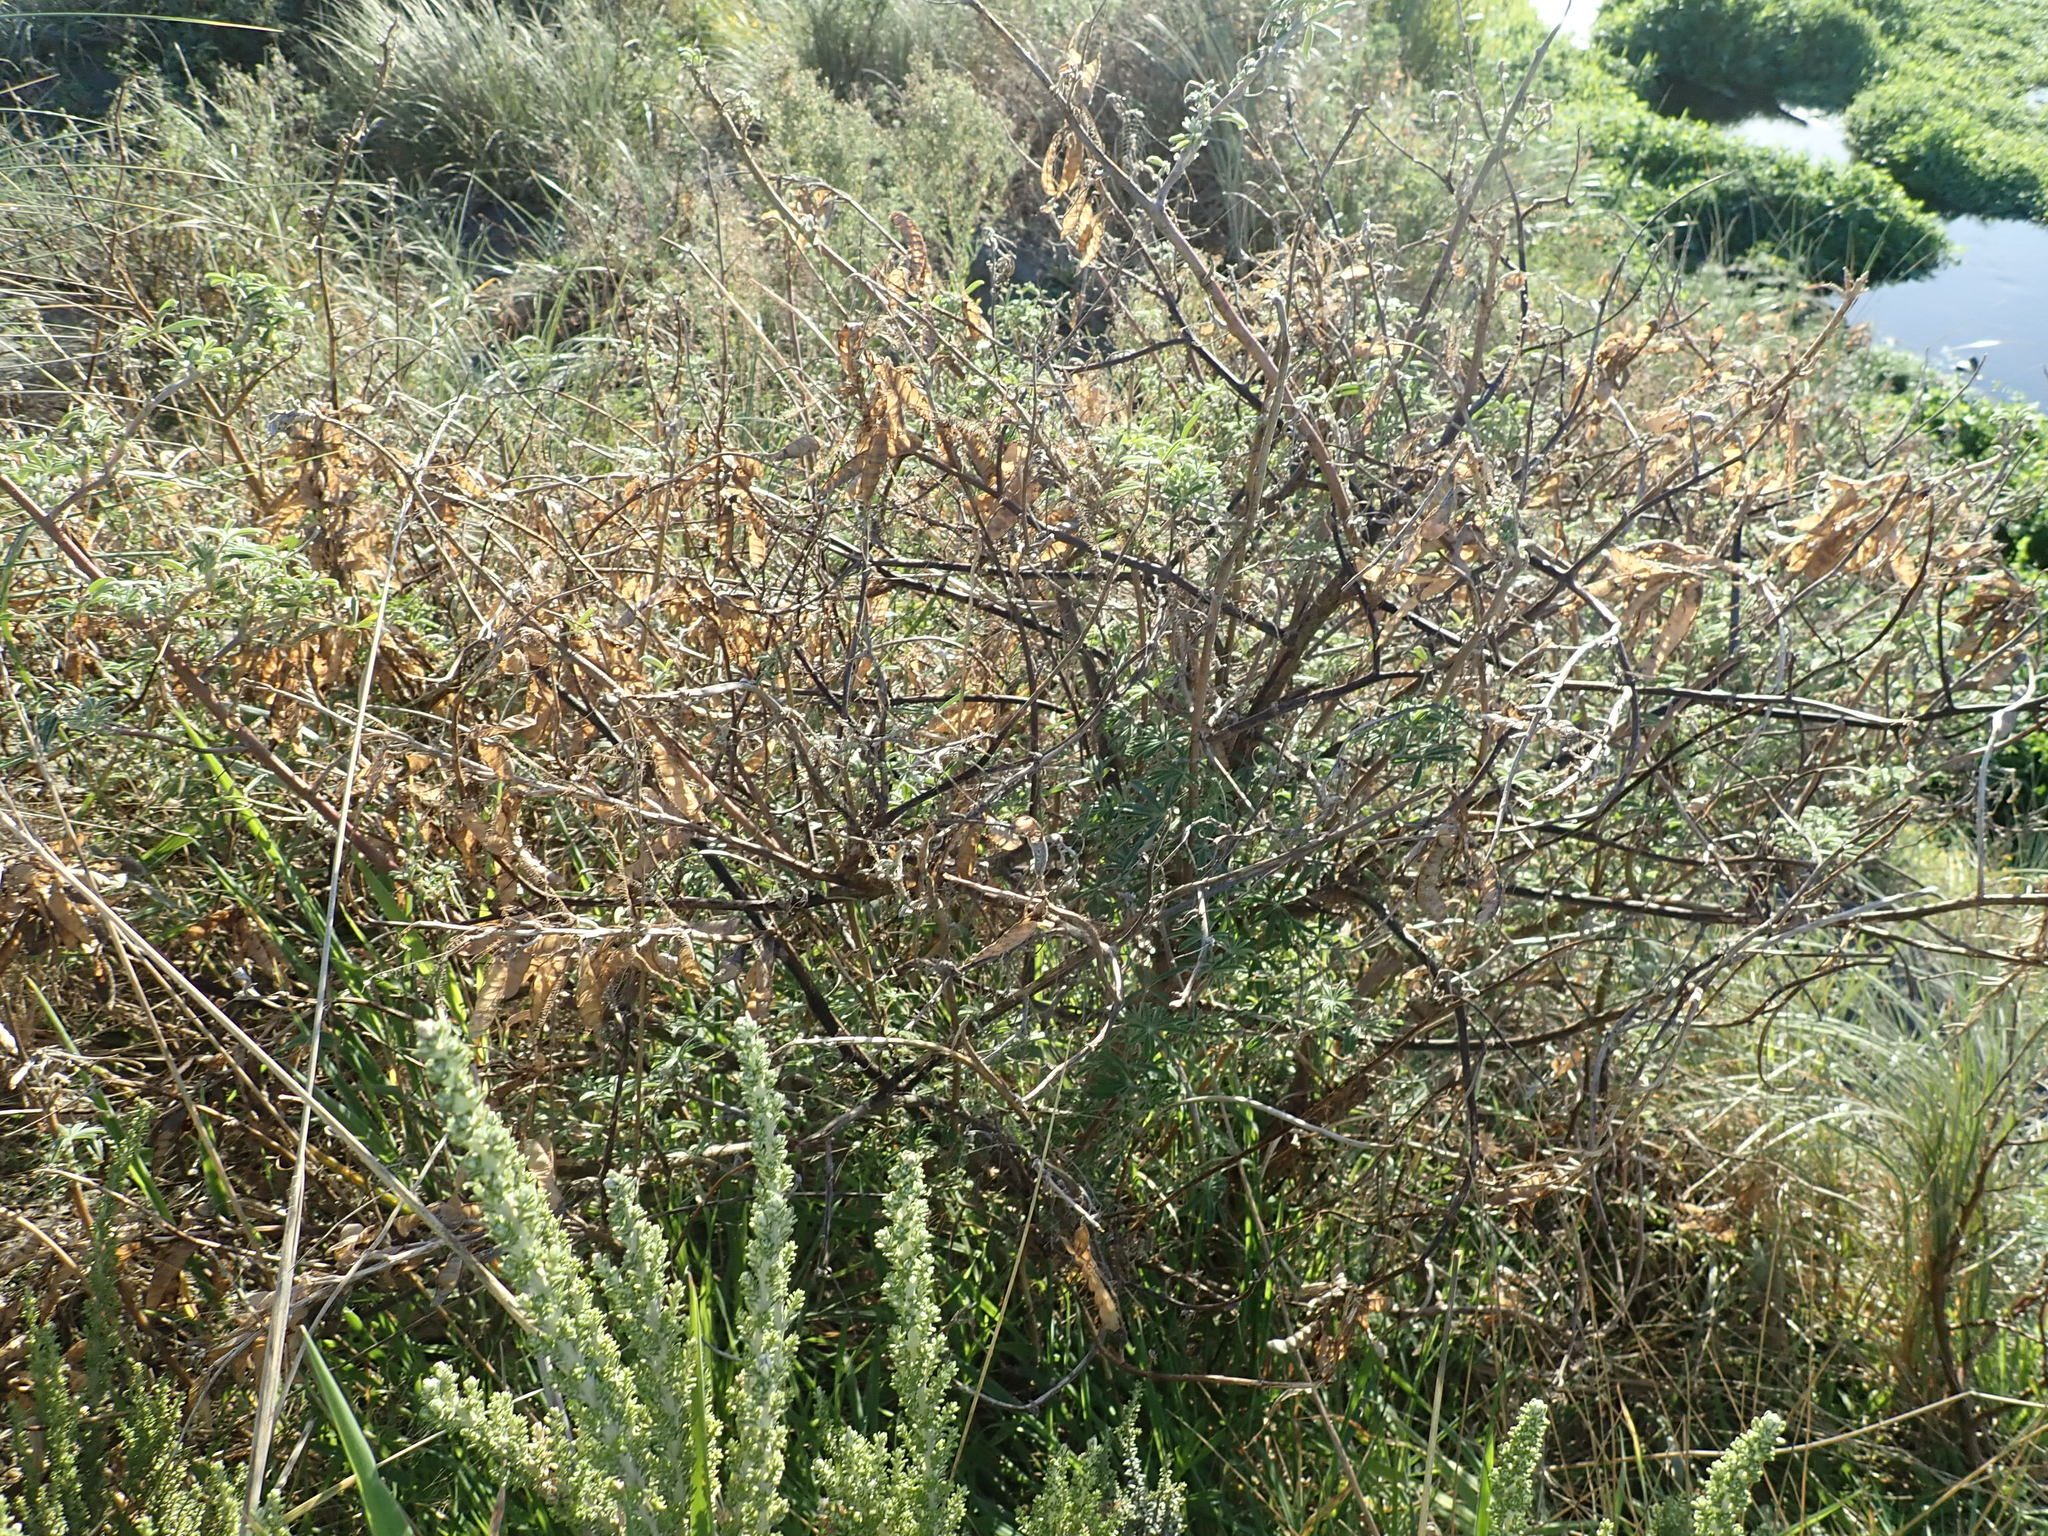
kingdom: Plantae
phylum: Tracheophyta
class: Magnoliopsida
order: Fabales
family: Fabaceae
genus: Lupinus
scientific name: Lupinus arboreus
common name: Yellow bush lupine
